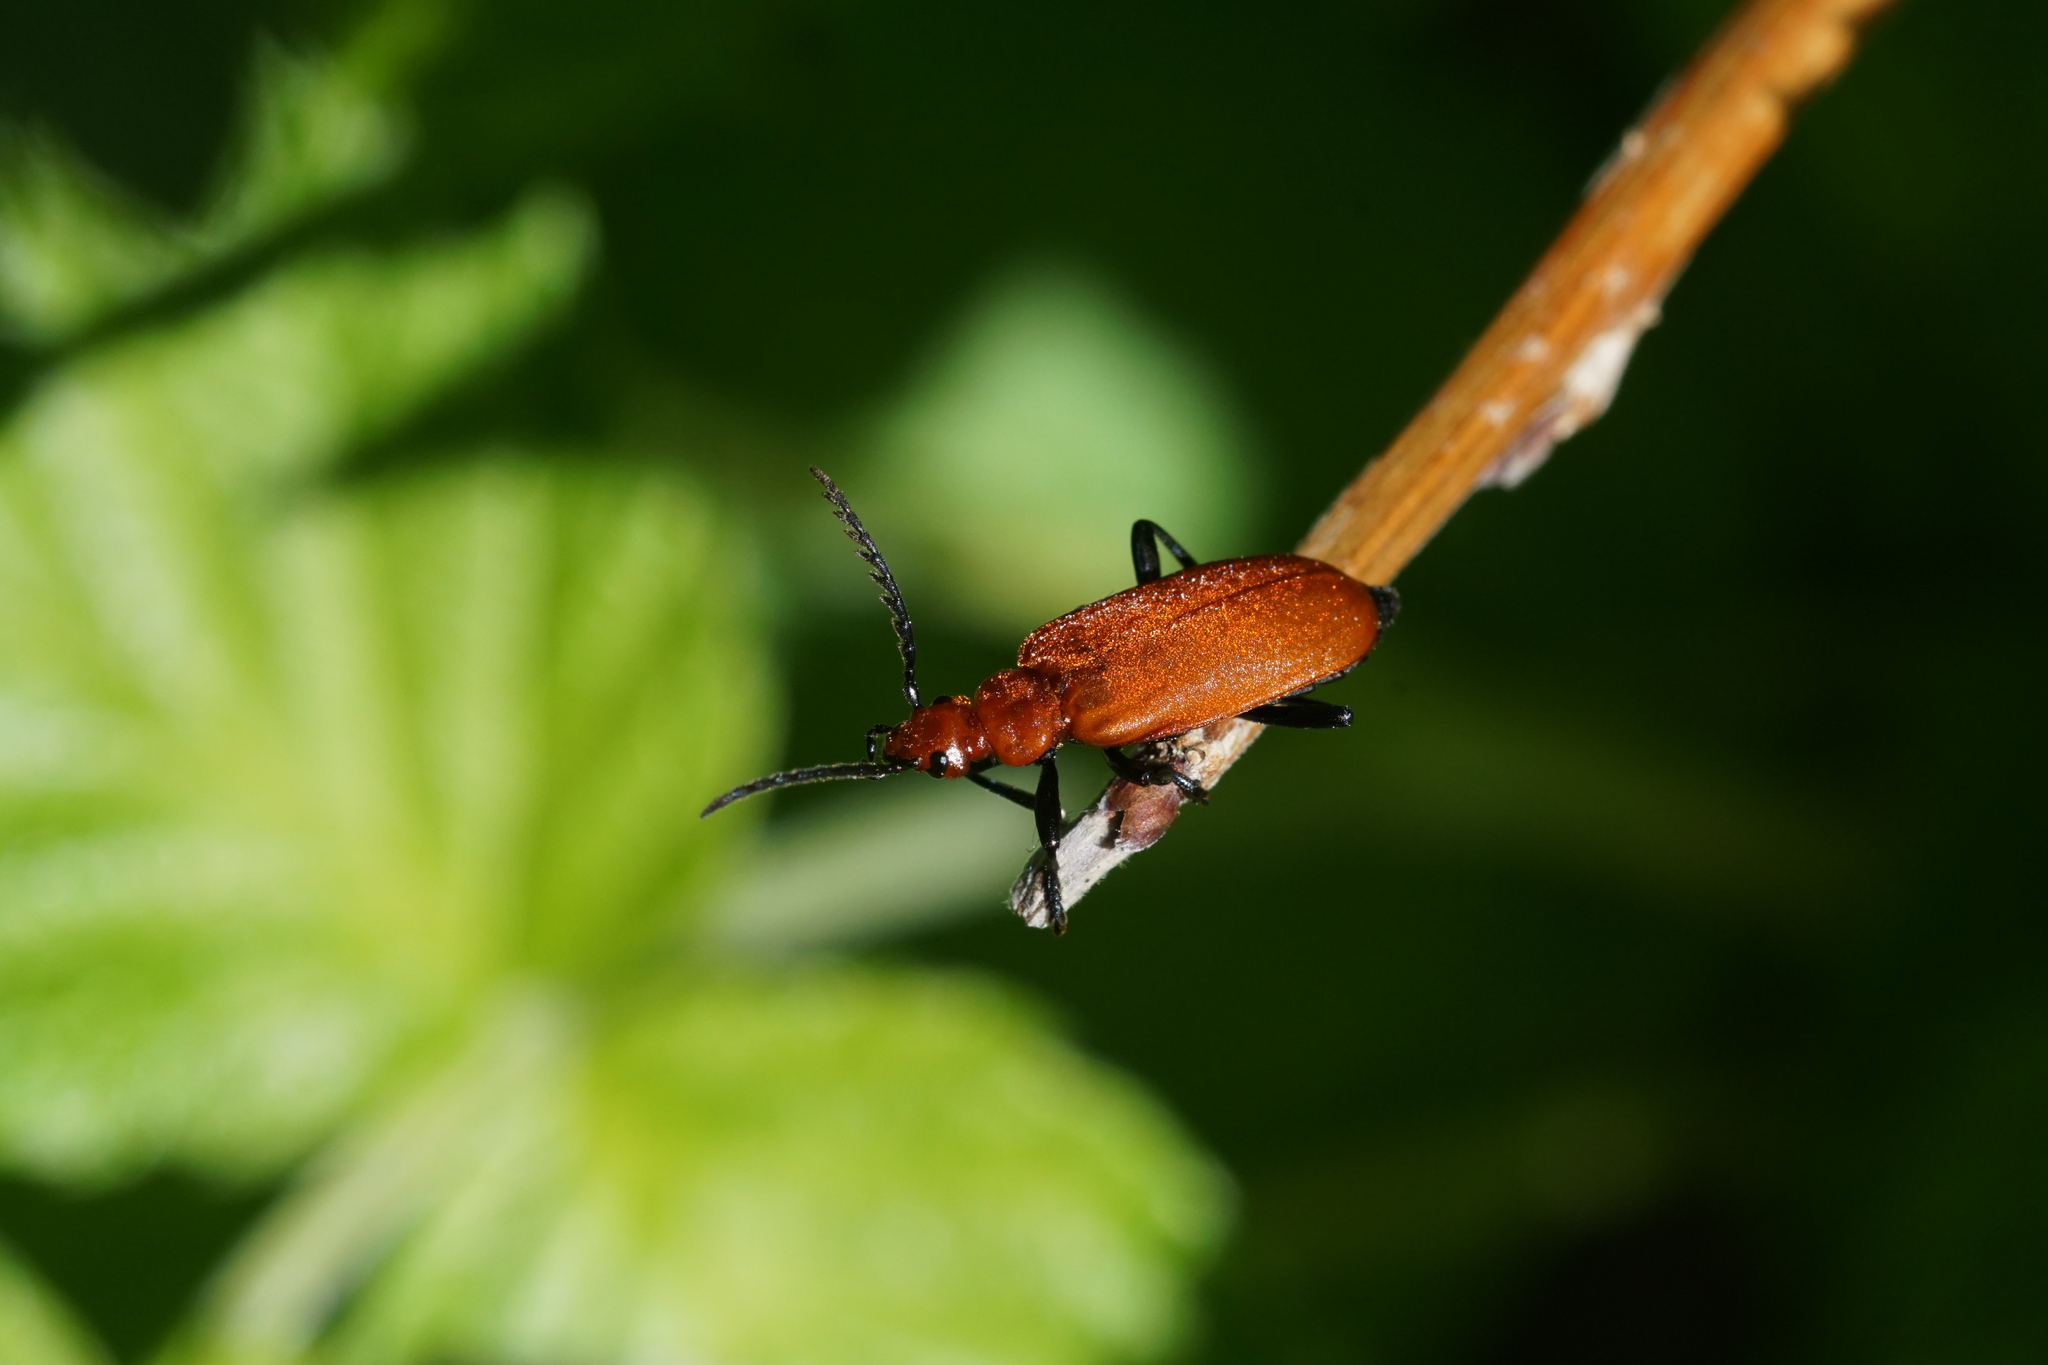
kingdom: Animalia
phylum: Arthropoda
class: Insecta
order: Coleoptera
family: Pyrochroidae
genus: Pyrochroa
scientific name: Pyrochroa serraticornis
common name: Red-headed cardinal beetle
